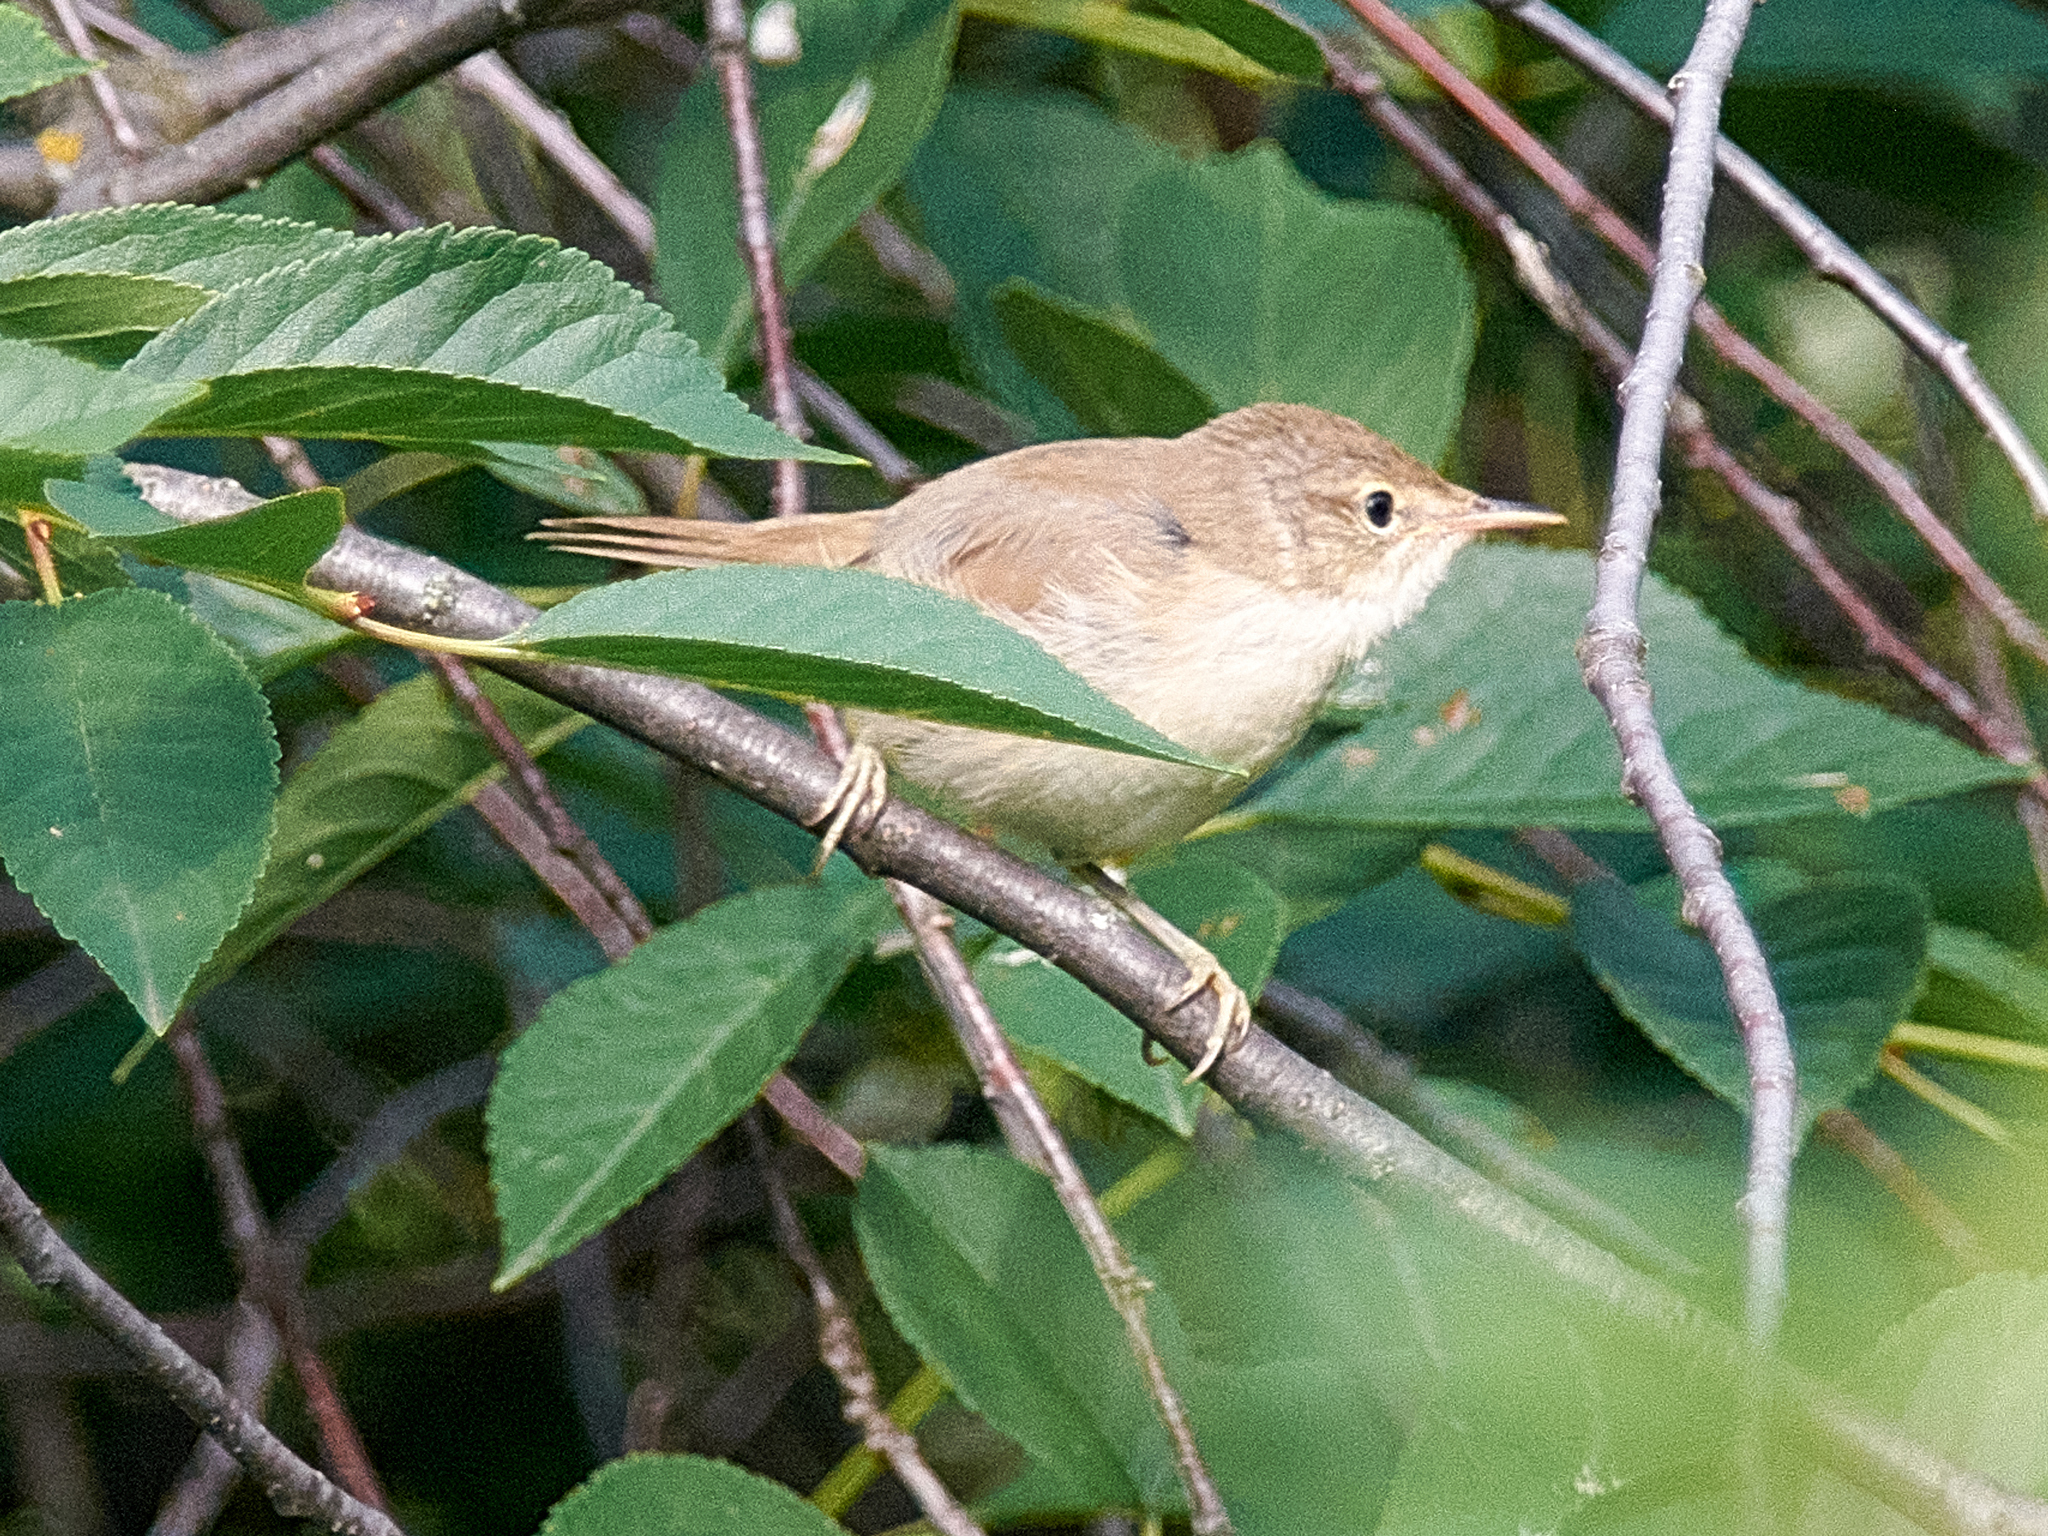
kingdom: Animalia
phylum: Chordata
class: Aves
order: Passeriformes
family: Acrocephalidae
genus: Acrocephalus
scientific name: Acrocephalus dumetorum
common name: Blyth's reed warbler
